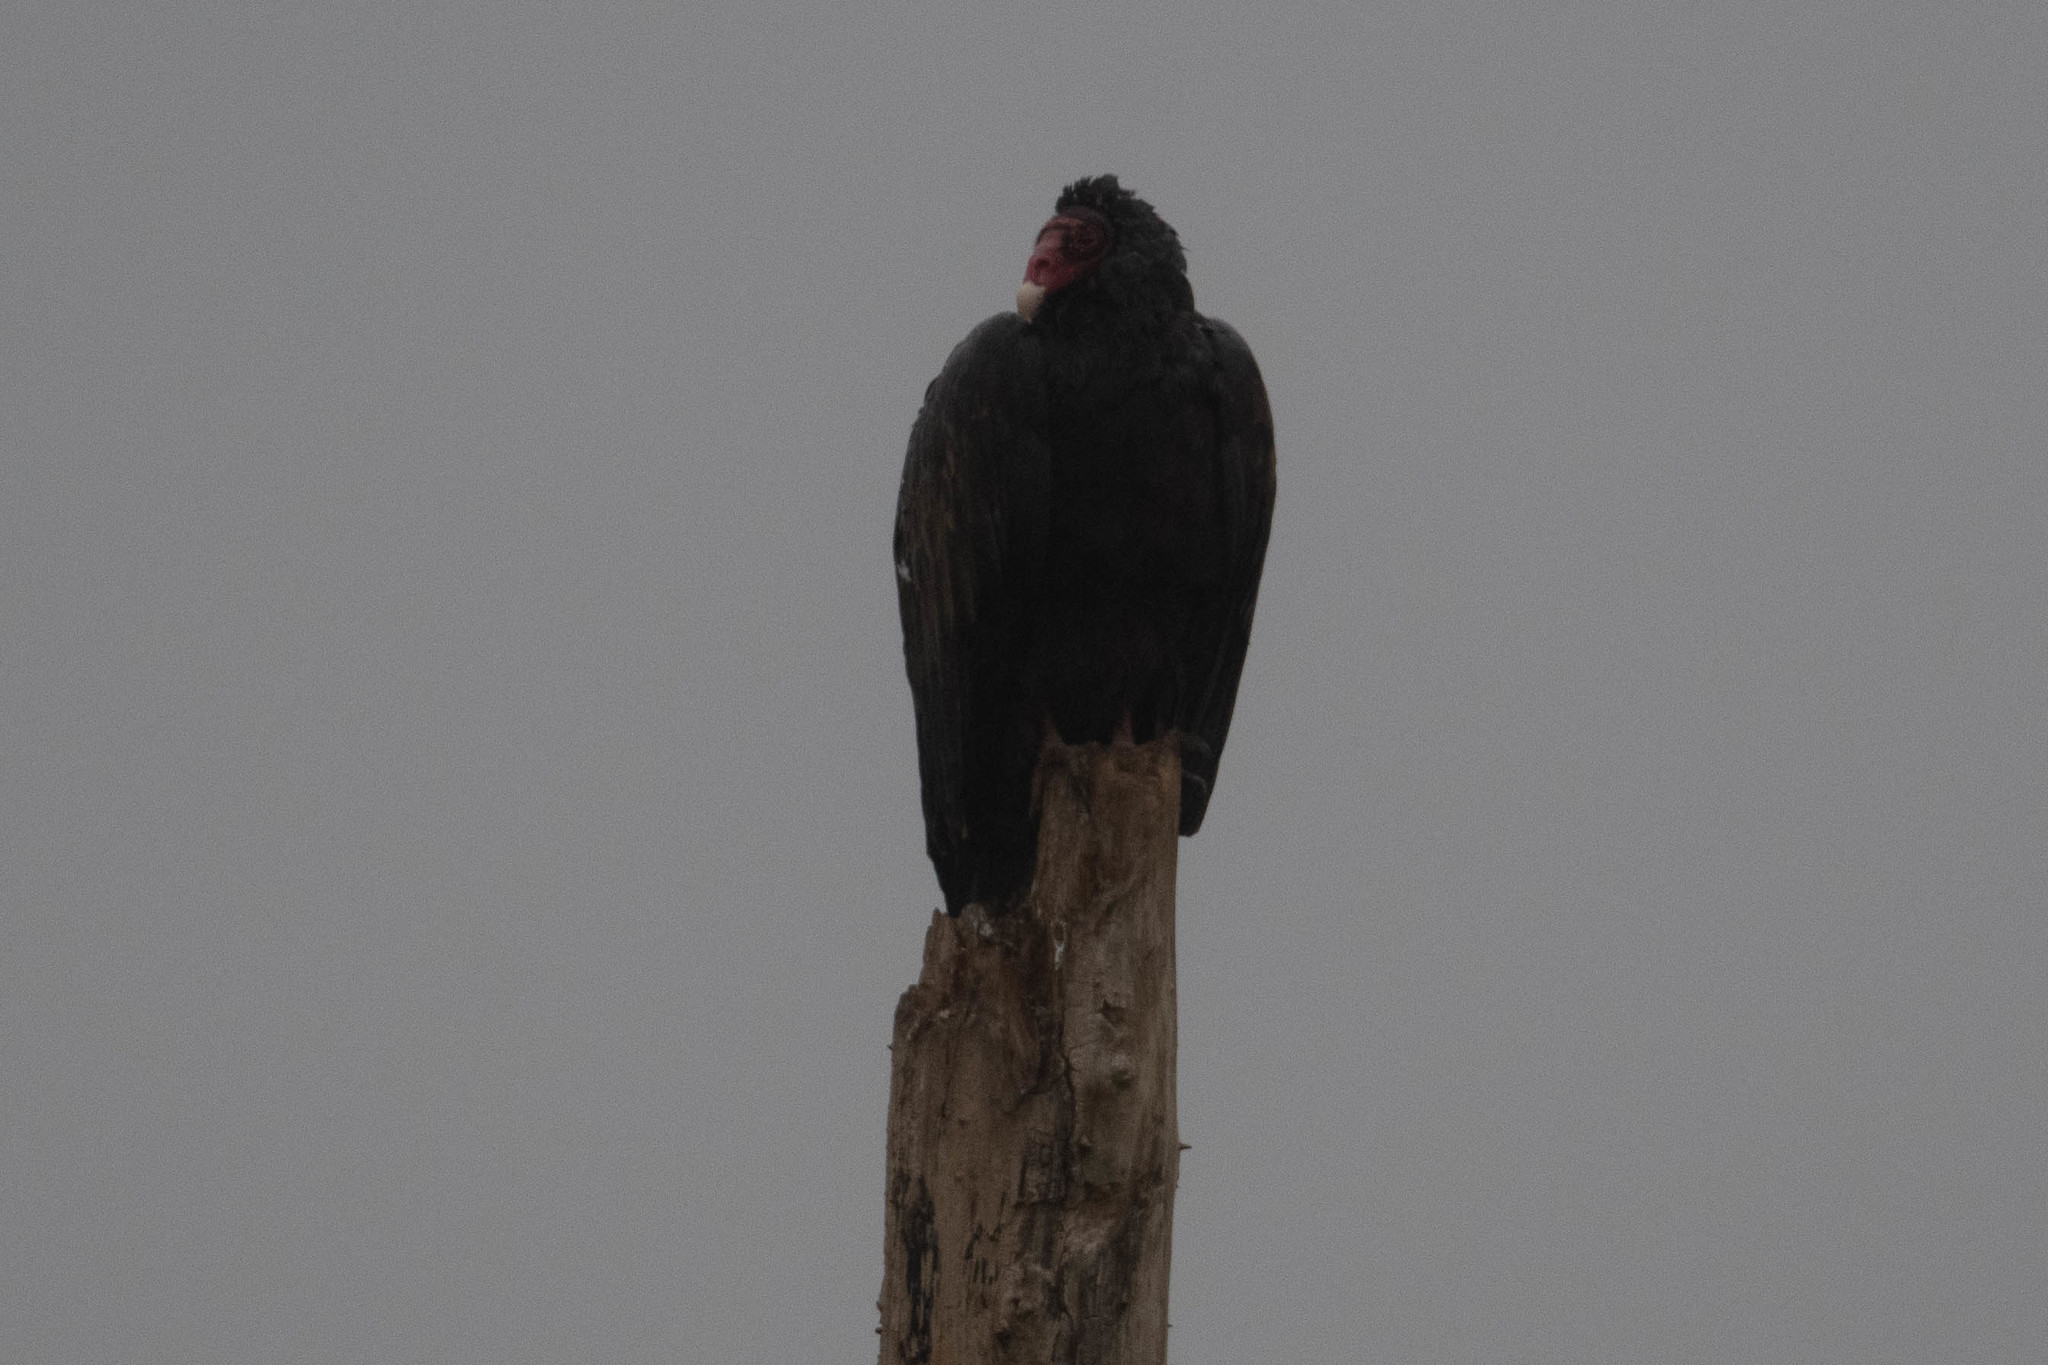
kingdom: Animalia
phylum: Chordata
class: Aves
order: Accipitriformes
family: Cathartidae
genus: Cathartes
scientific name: Cathartes aura
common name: Turkey vulture
